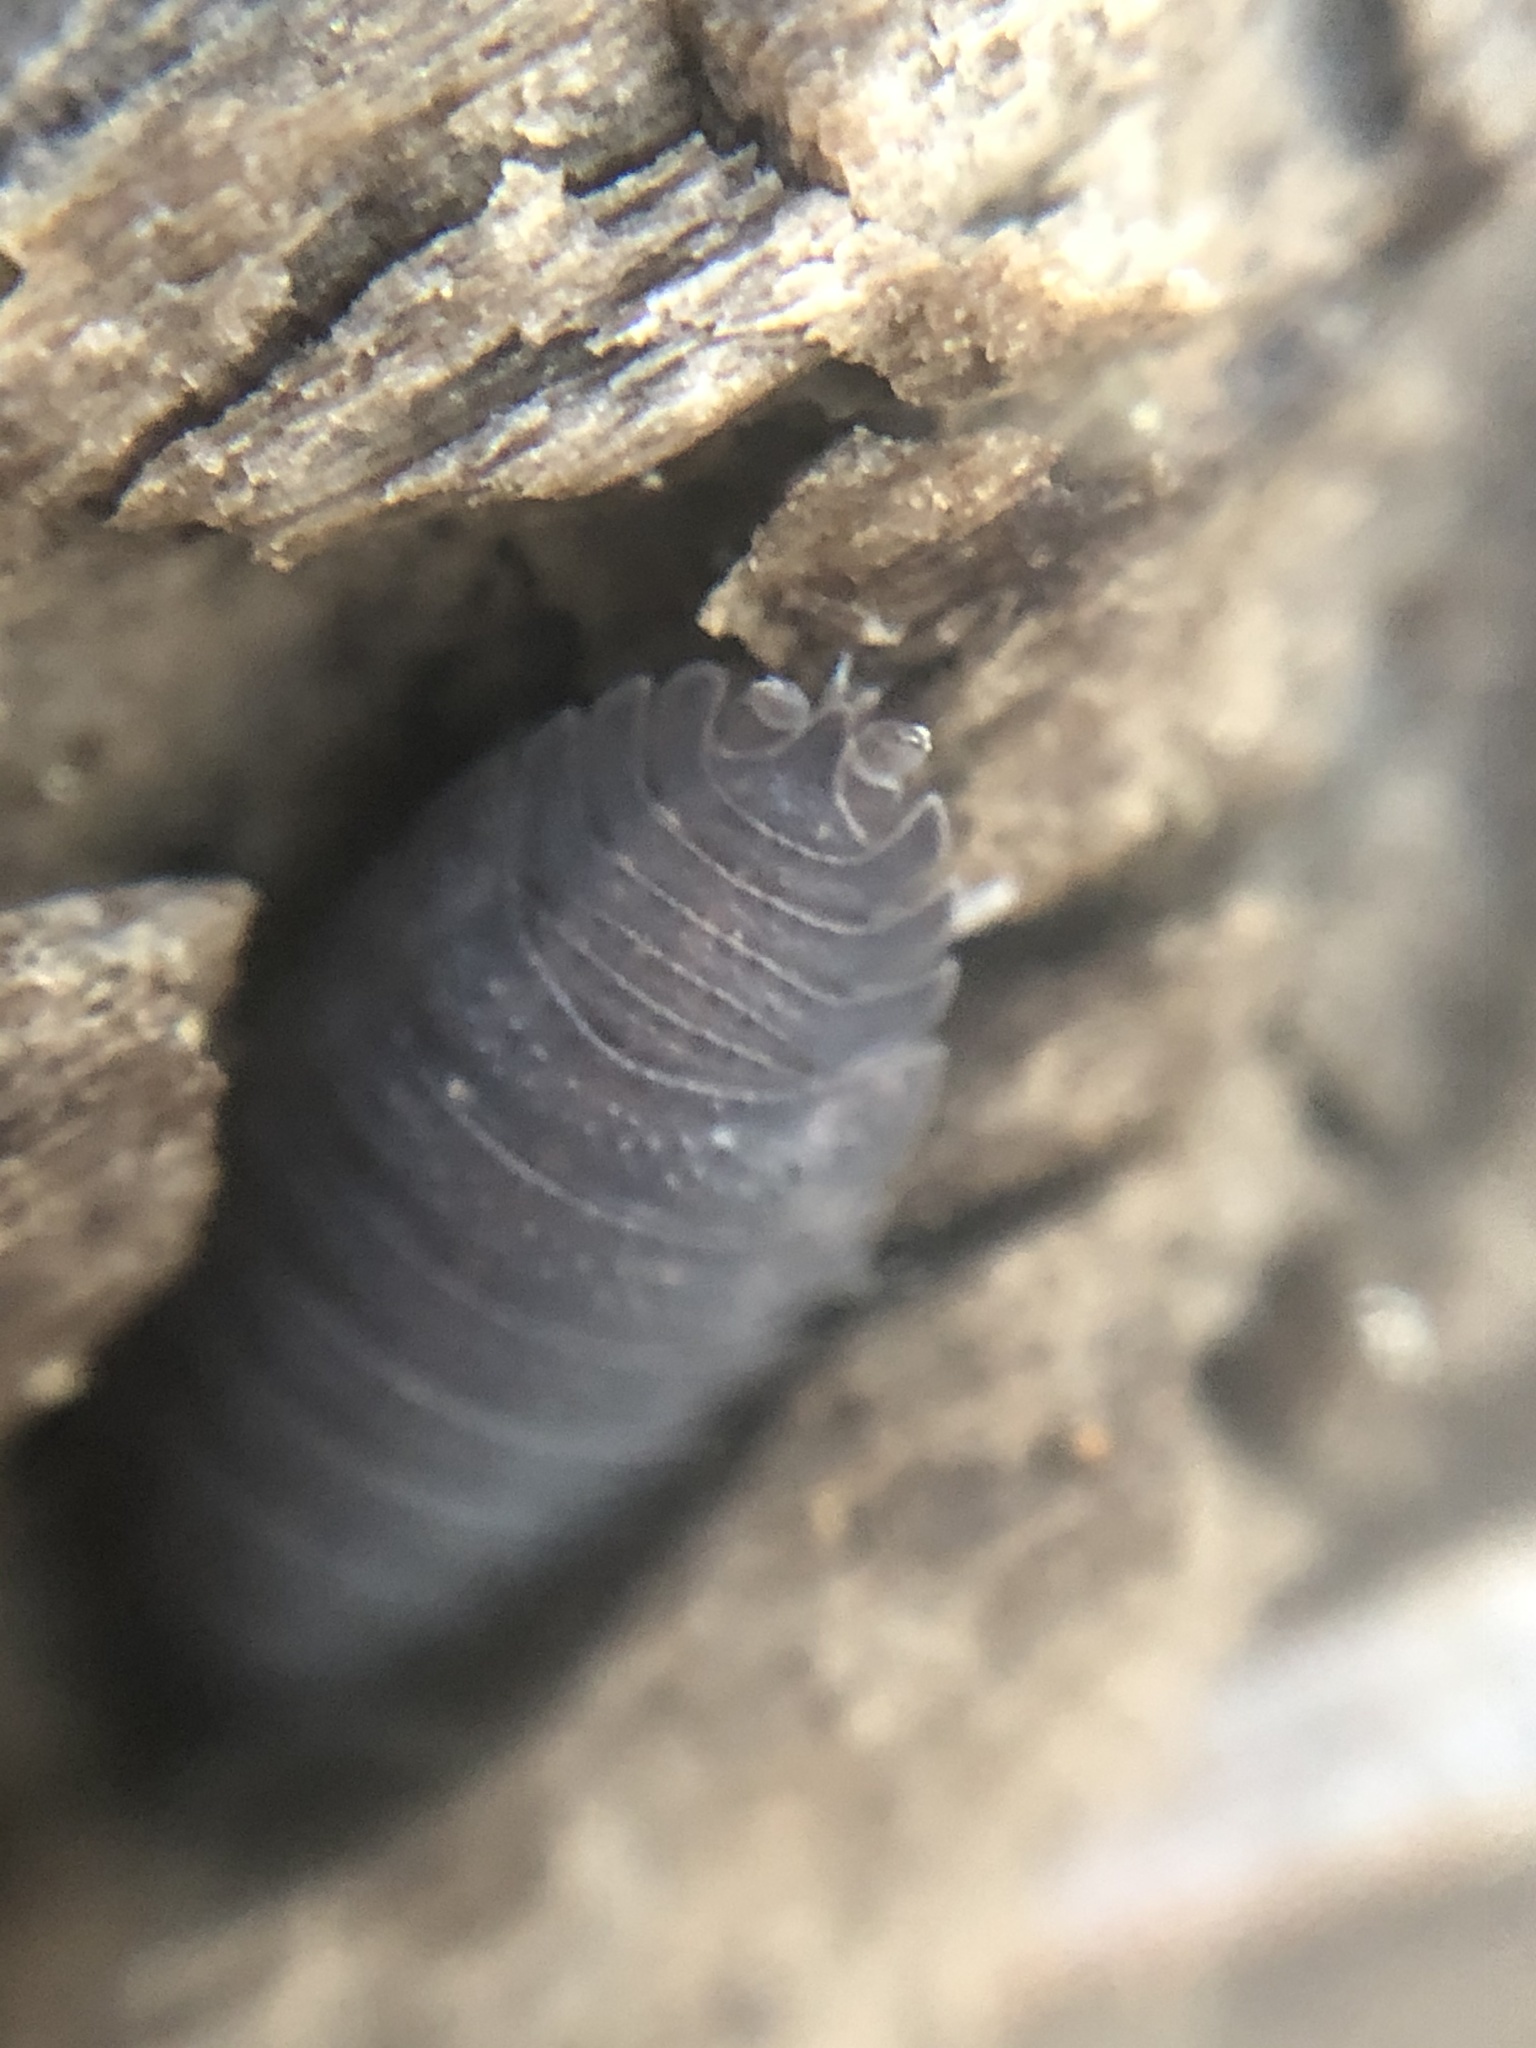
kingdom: Animalia
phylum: Arthropoda
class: Malacostraca
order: Isopoda
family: Porcellionidae
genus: Porcellio
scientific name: Porcellio scaber
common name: Common rough woodlouse
